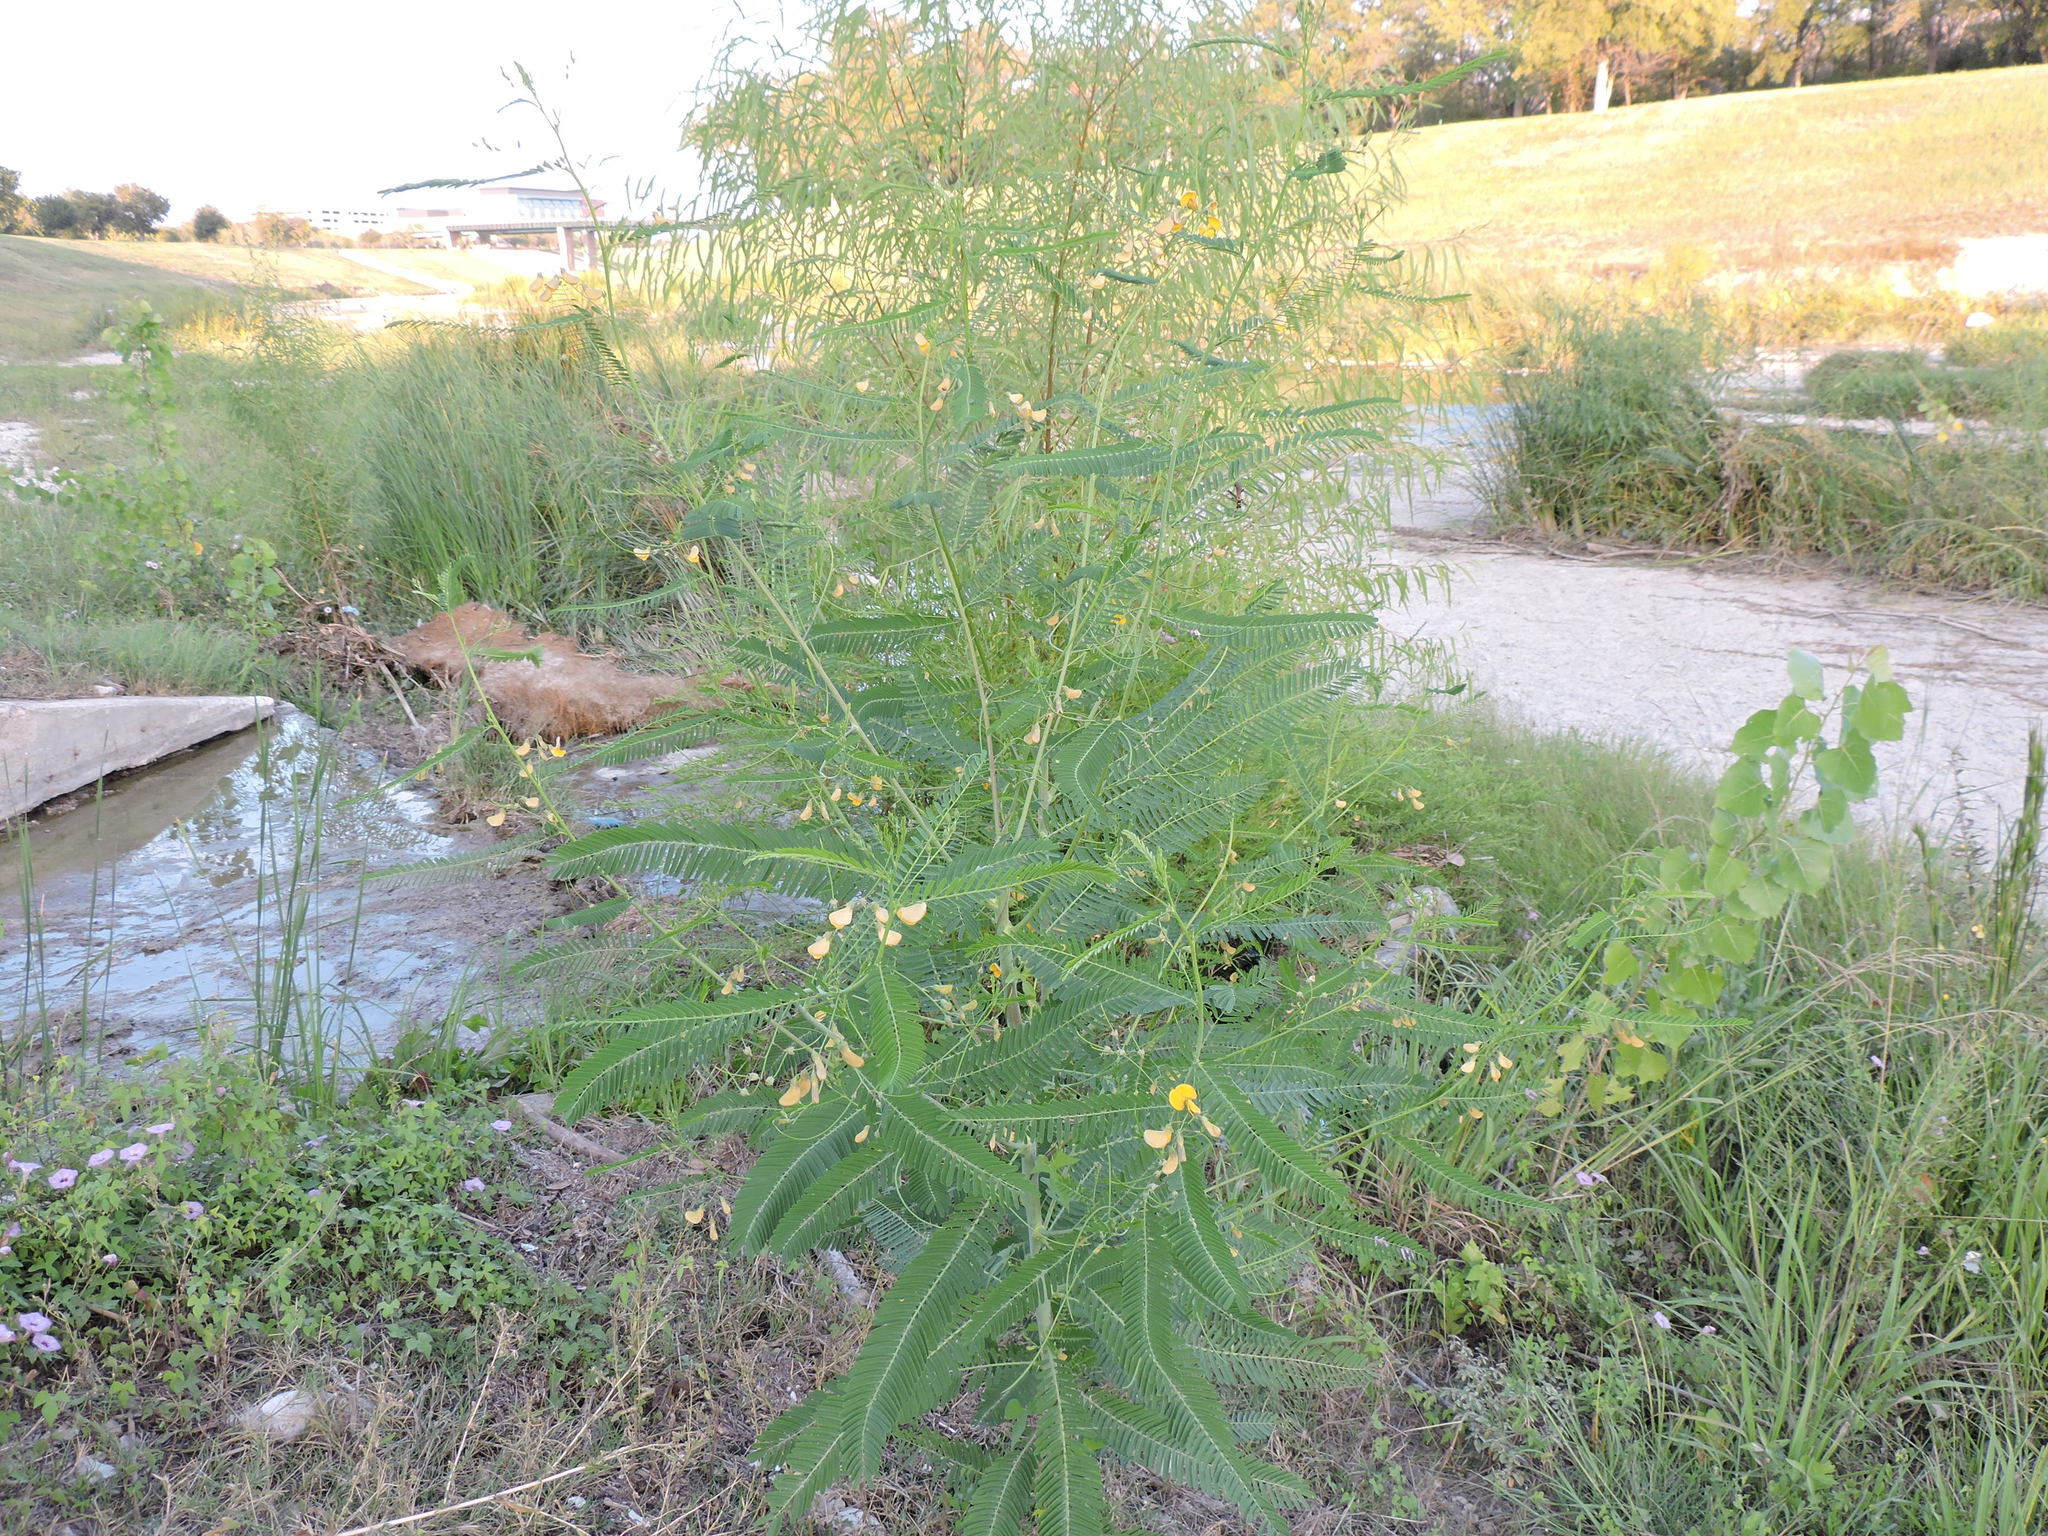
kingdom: Plantae
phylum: Tracheophyta
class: Magnoliopsida
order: Fabales
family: Fabaceae
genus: Sesbania
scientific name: Sesbania herbacea
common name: Bigpod sesbania
